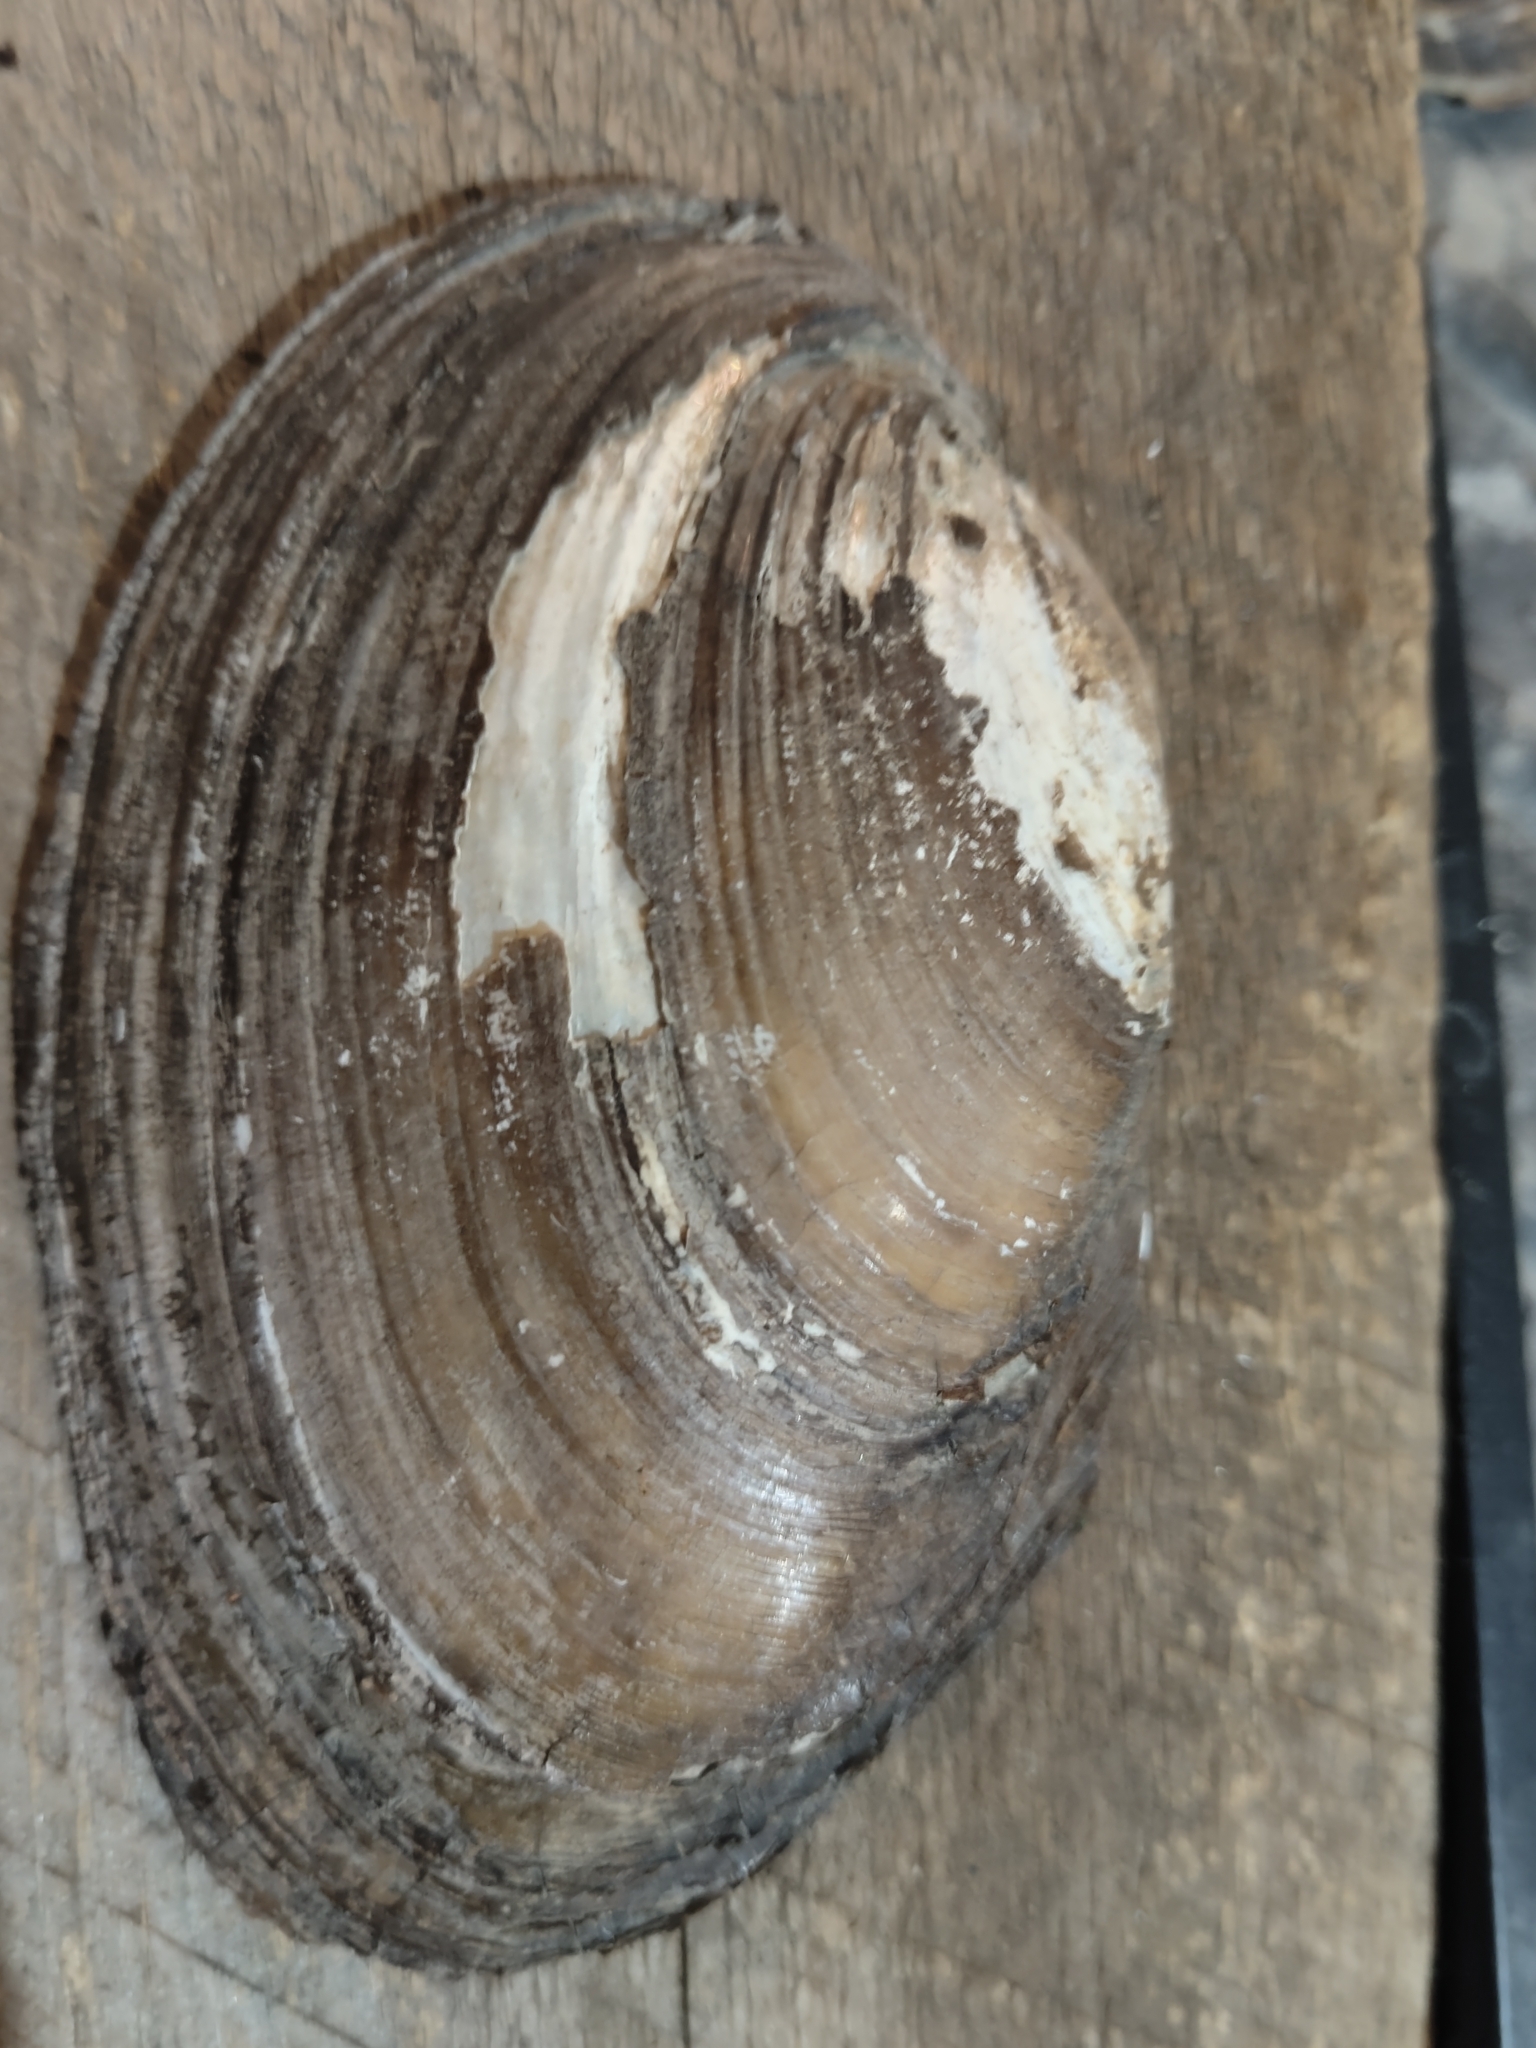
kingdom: Animalia
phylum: Mollusca
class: Bivalvia
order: Unionida
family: Unionidae
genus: Potamilus
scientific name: Potamilus fragilis
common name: Fragile papershell
